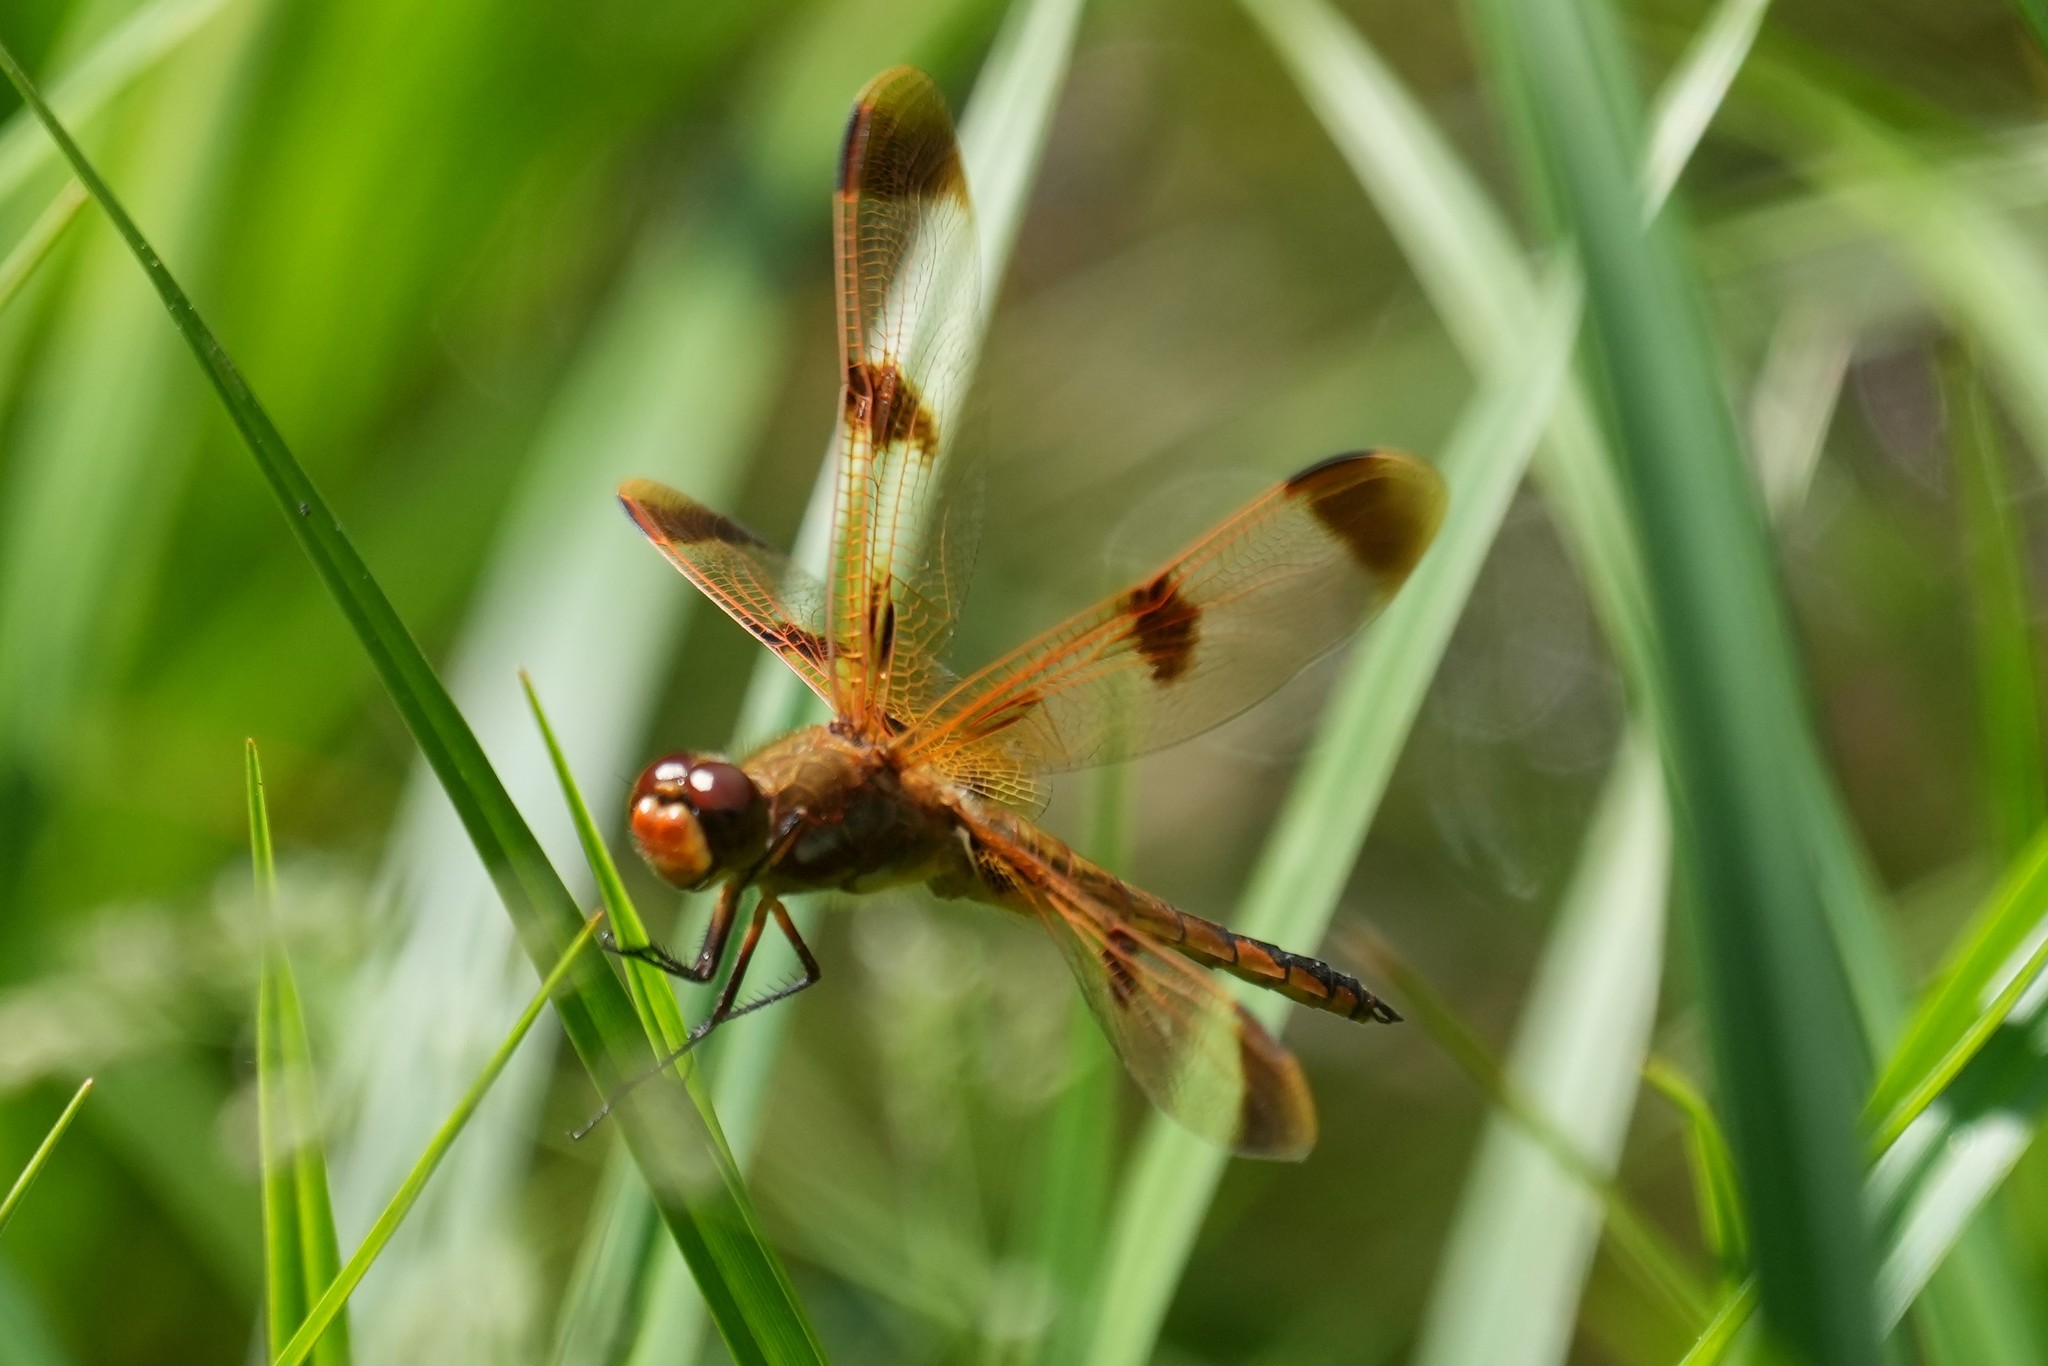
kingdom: Animalia
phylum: Arthropoda
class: Insecta
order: Odonata
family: Libellulidae
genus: Libellula
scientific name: Libellula semifasciata
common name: Painted skimmer
